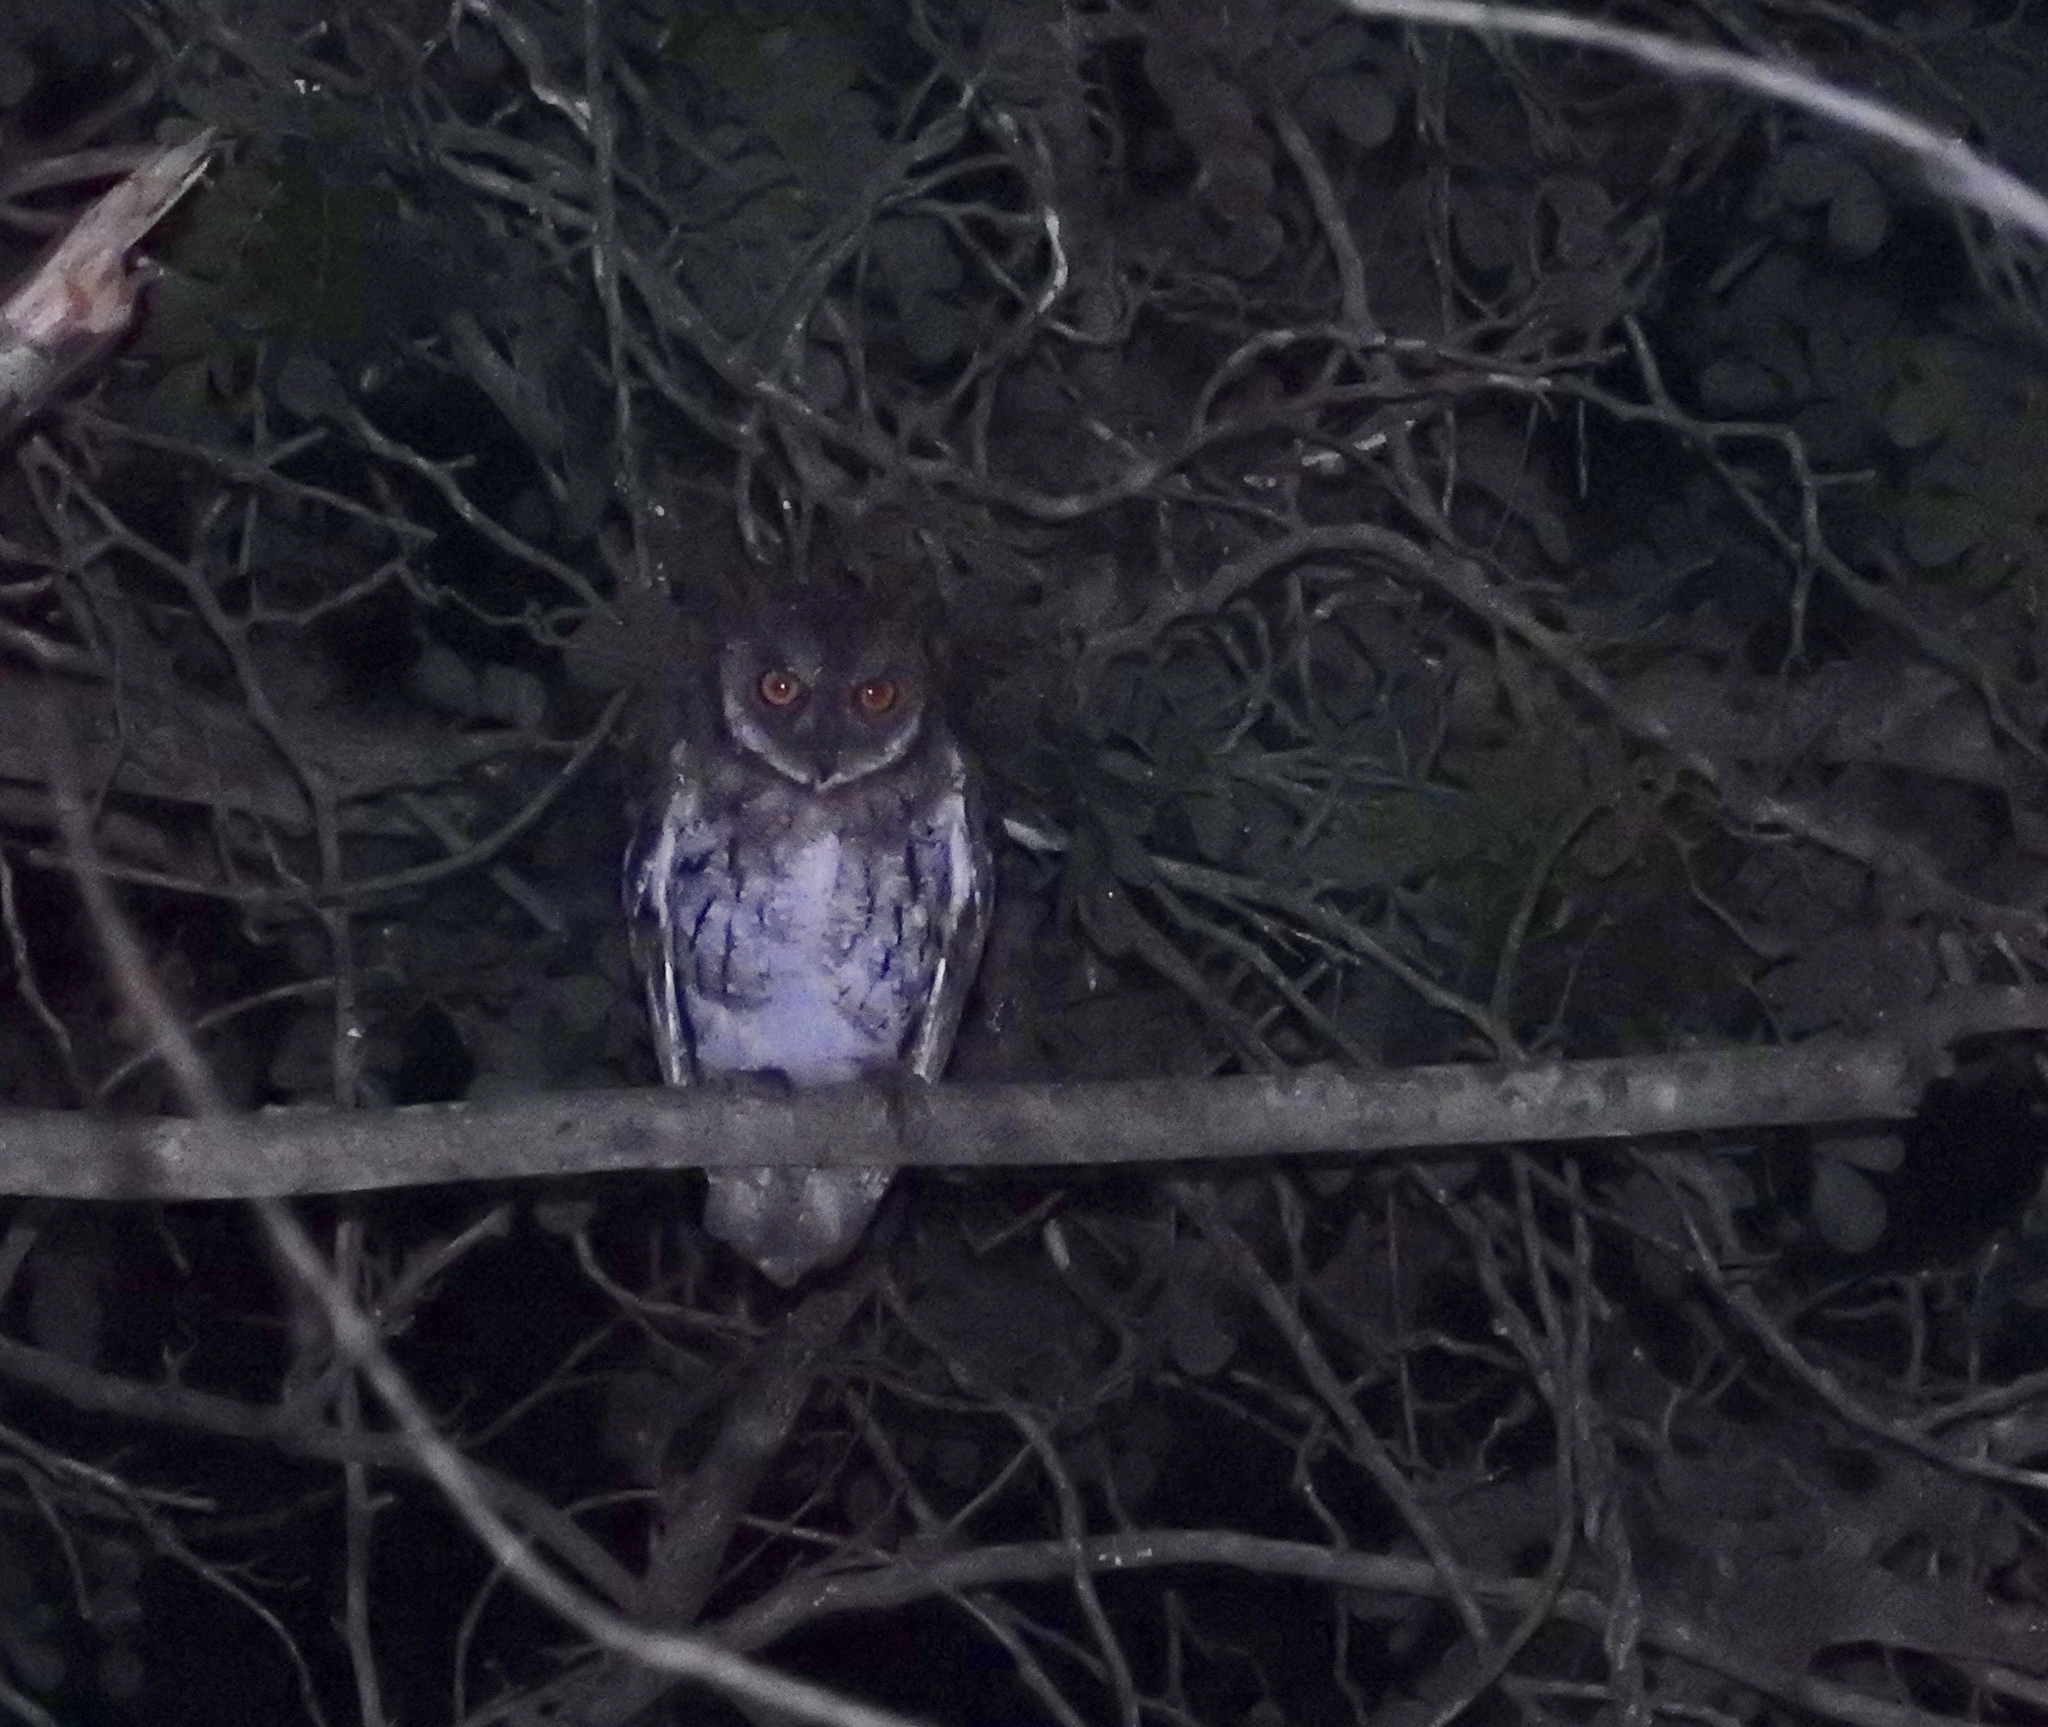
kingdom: Animalia
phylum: Chordata
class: Aves
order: Strigiformes
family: Strigidae
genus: Otus
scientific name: Otus magicus
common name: Moluccan scops owl
